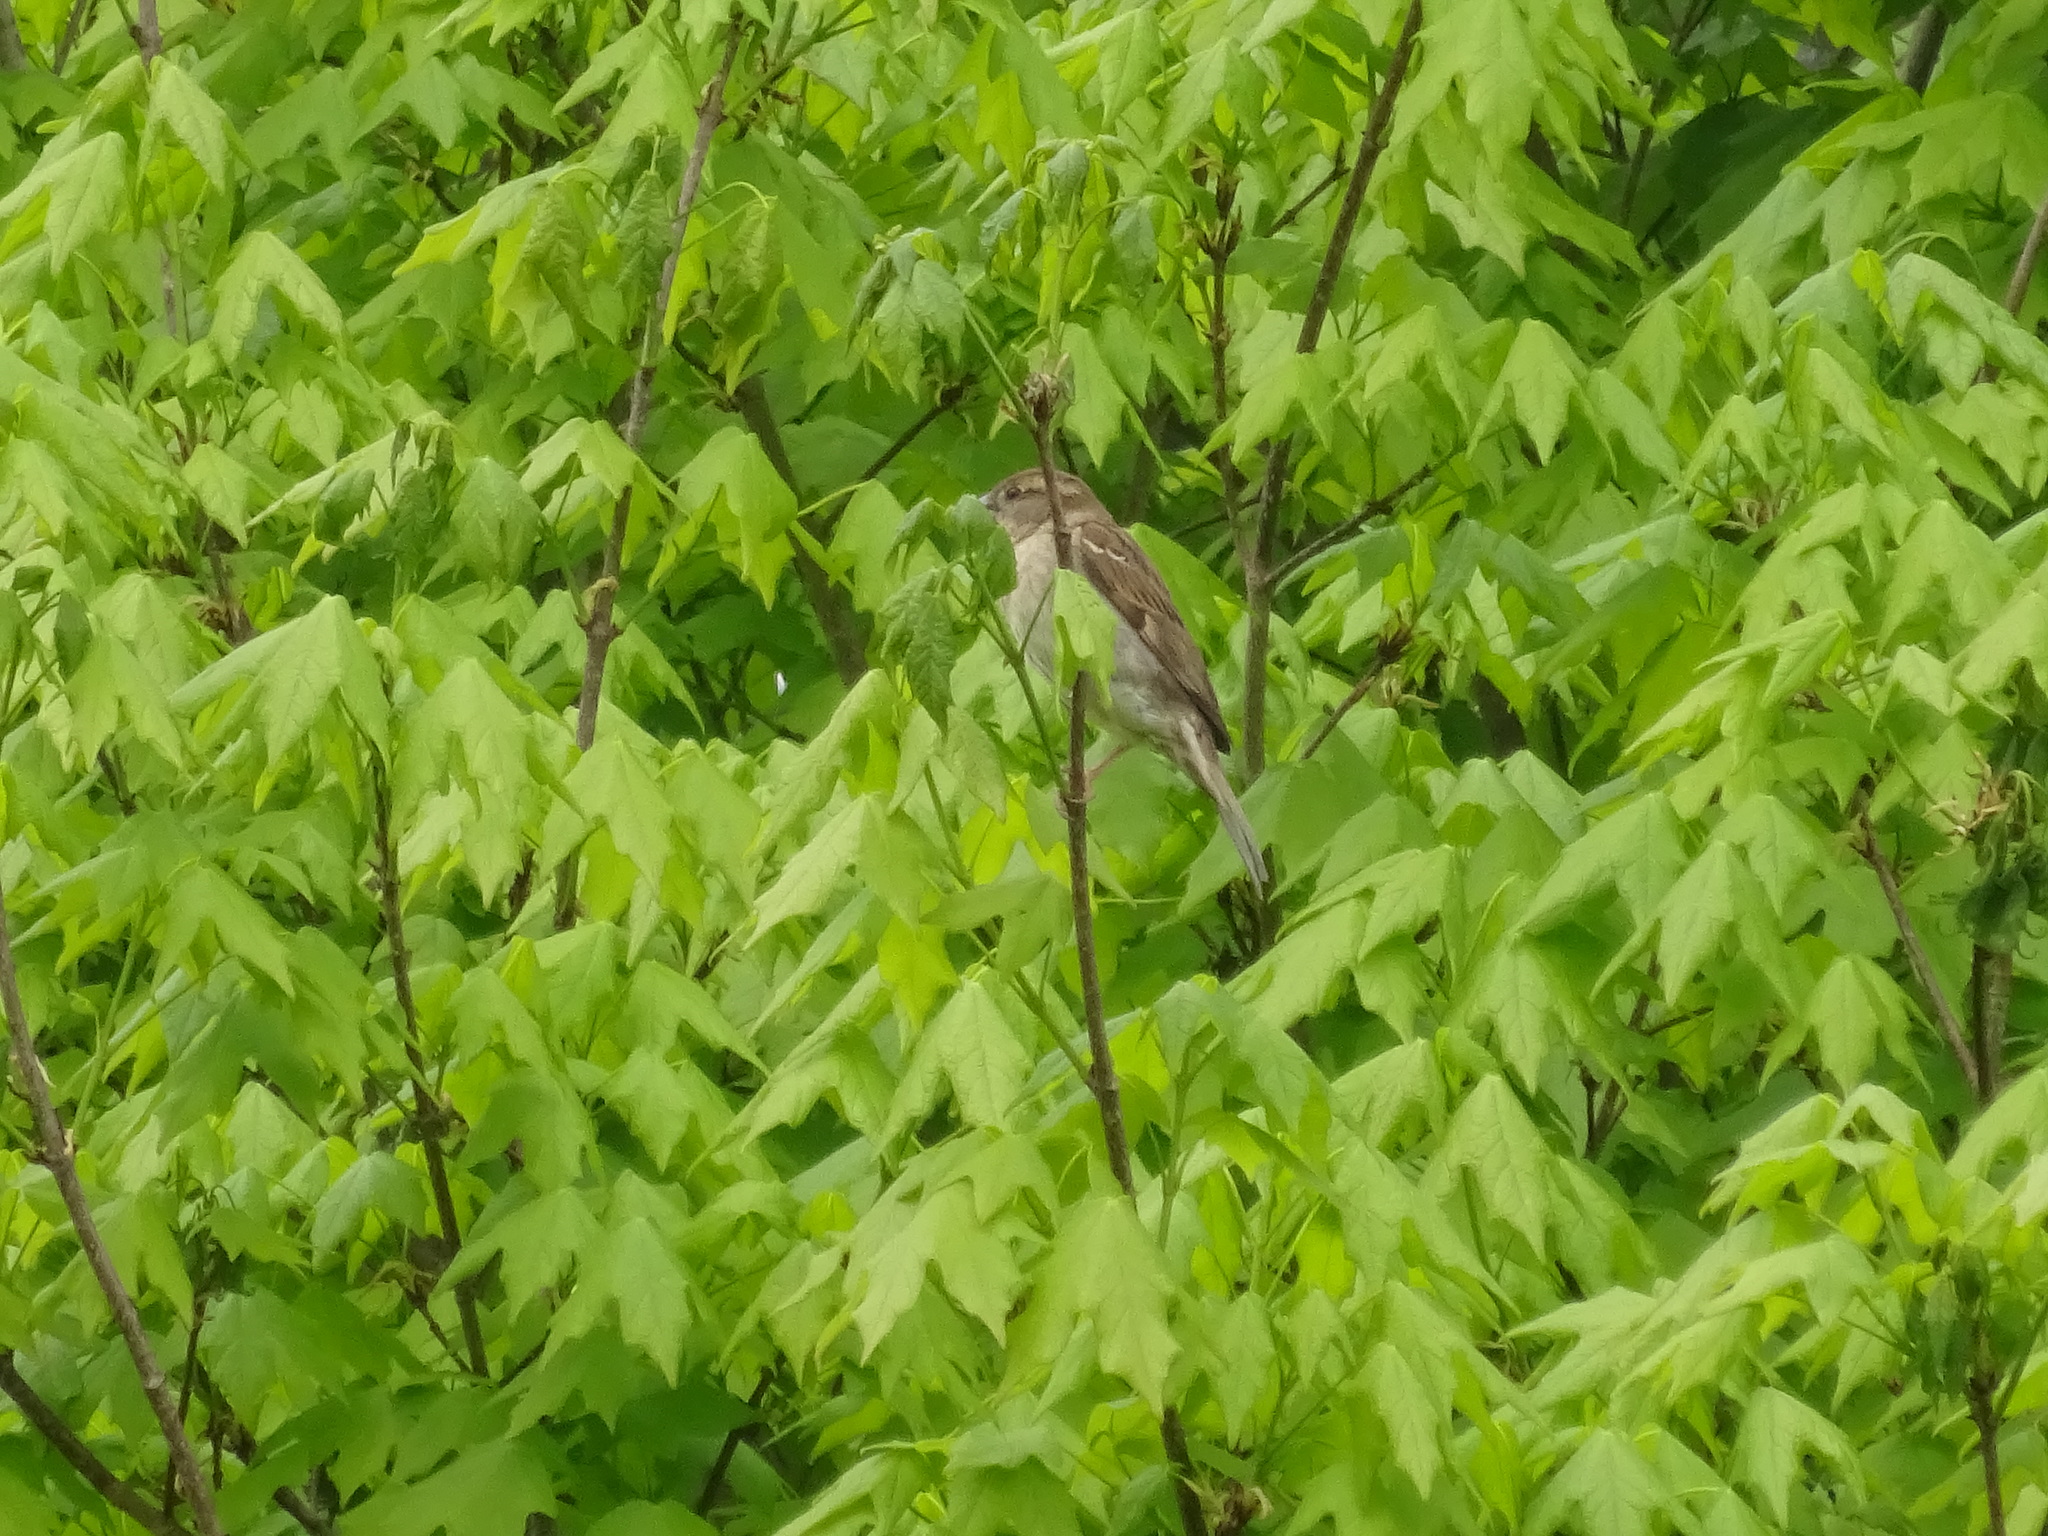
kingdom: Animalia
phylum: Chordata
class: Aves
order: Passeriformes
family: Passerellidae
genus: Spizella
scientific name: Spizella passerina
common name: Chipping sparrow
